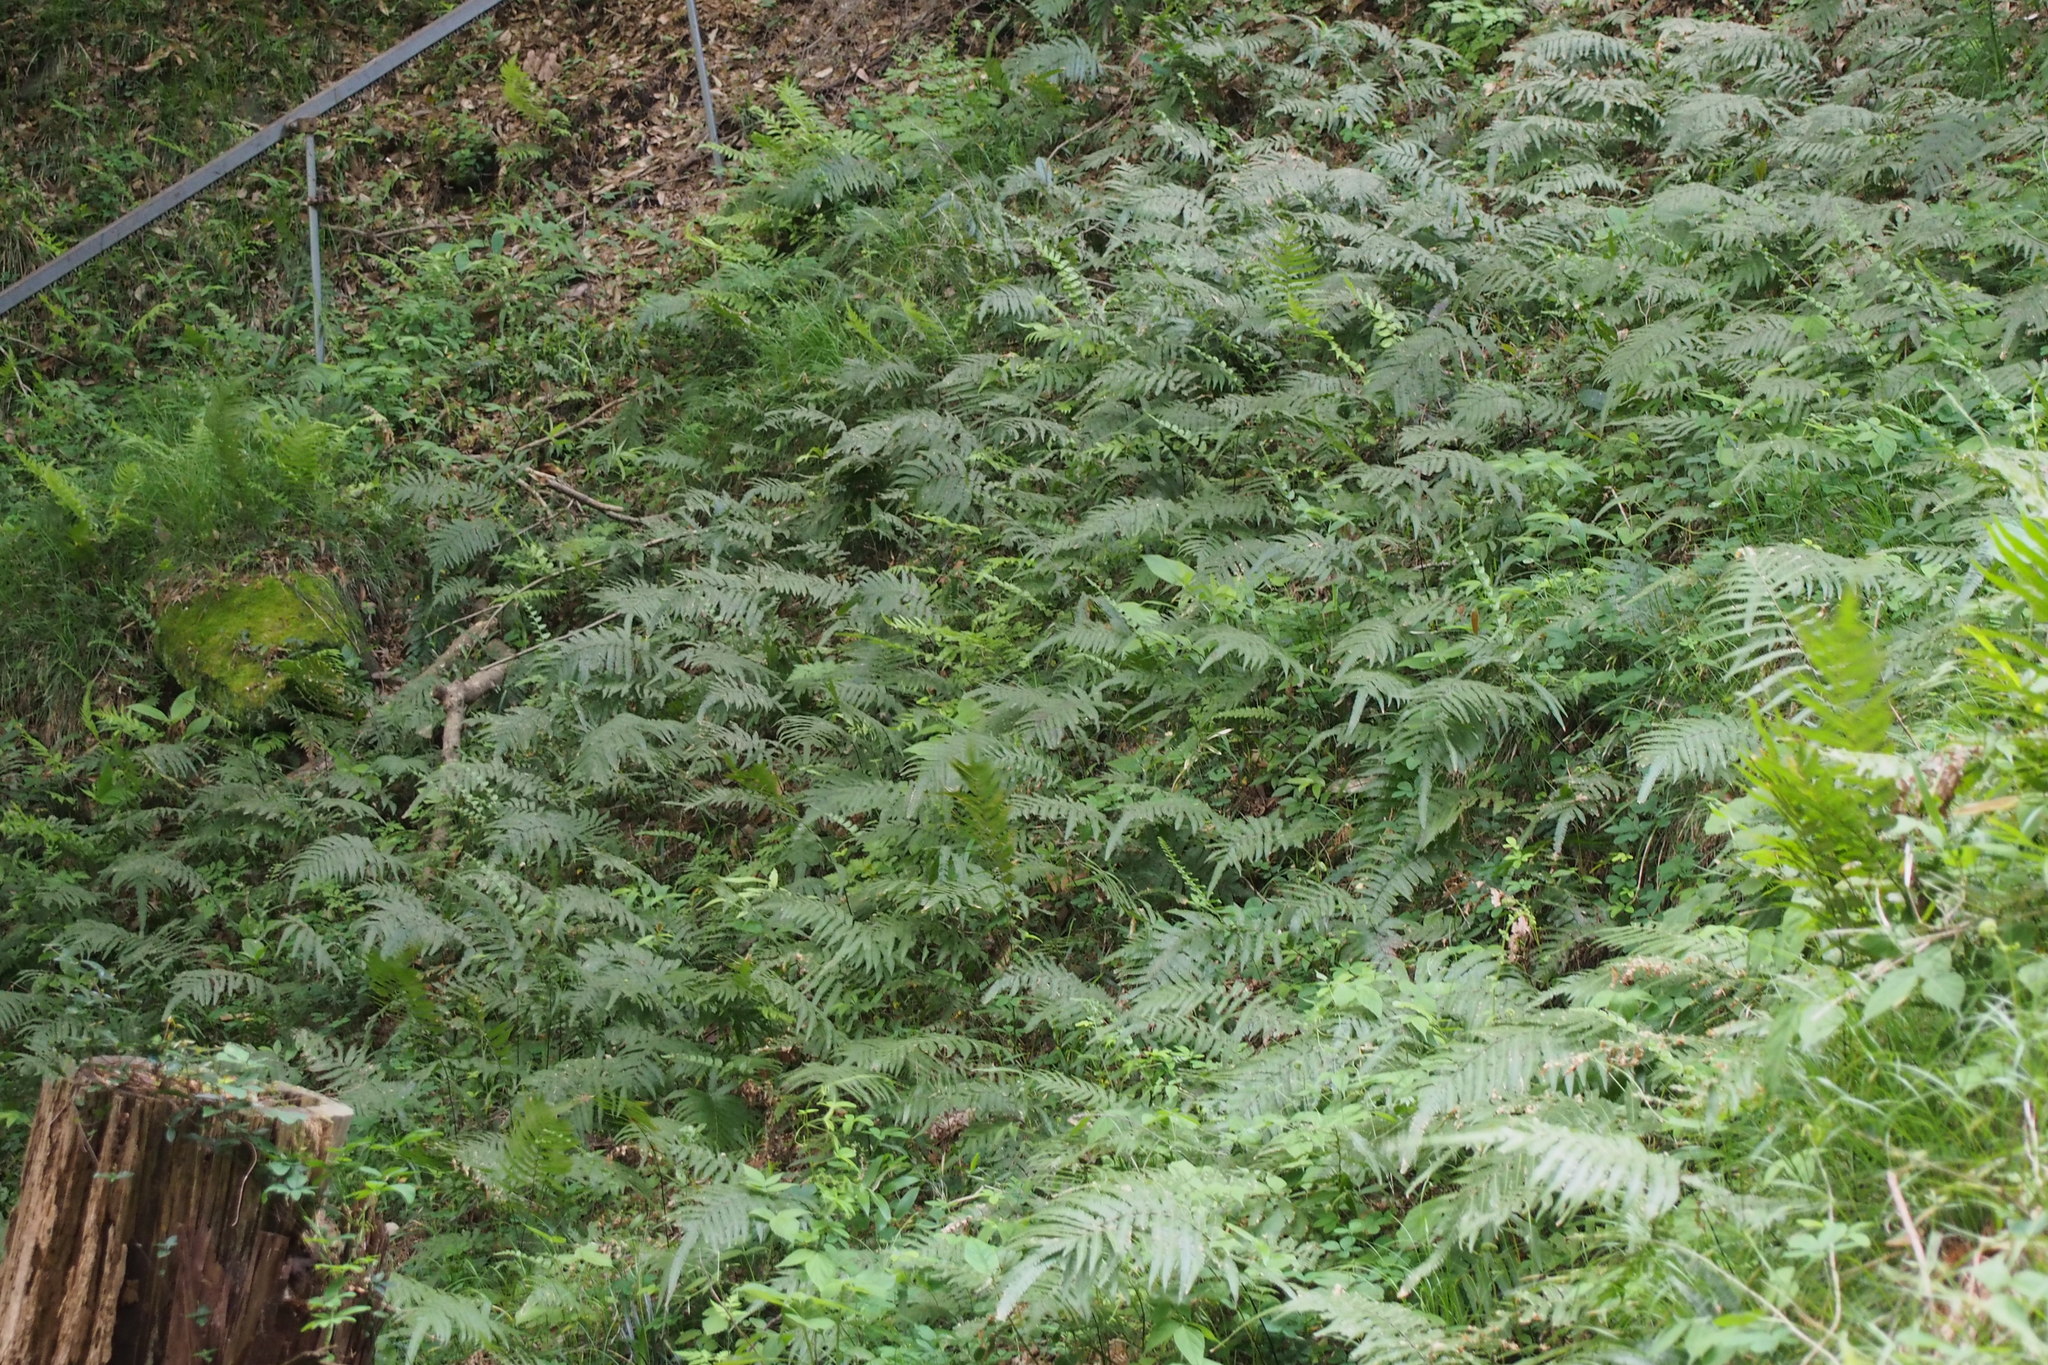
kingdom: Plantae
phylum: Tracheophyta
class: Polypodiopsida
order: Polypodiales
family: Thelypteridaceae
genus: Christella
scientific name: Christella acuminata
